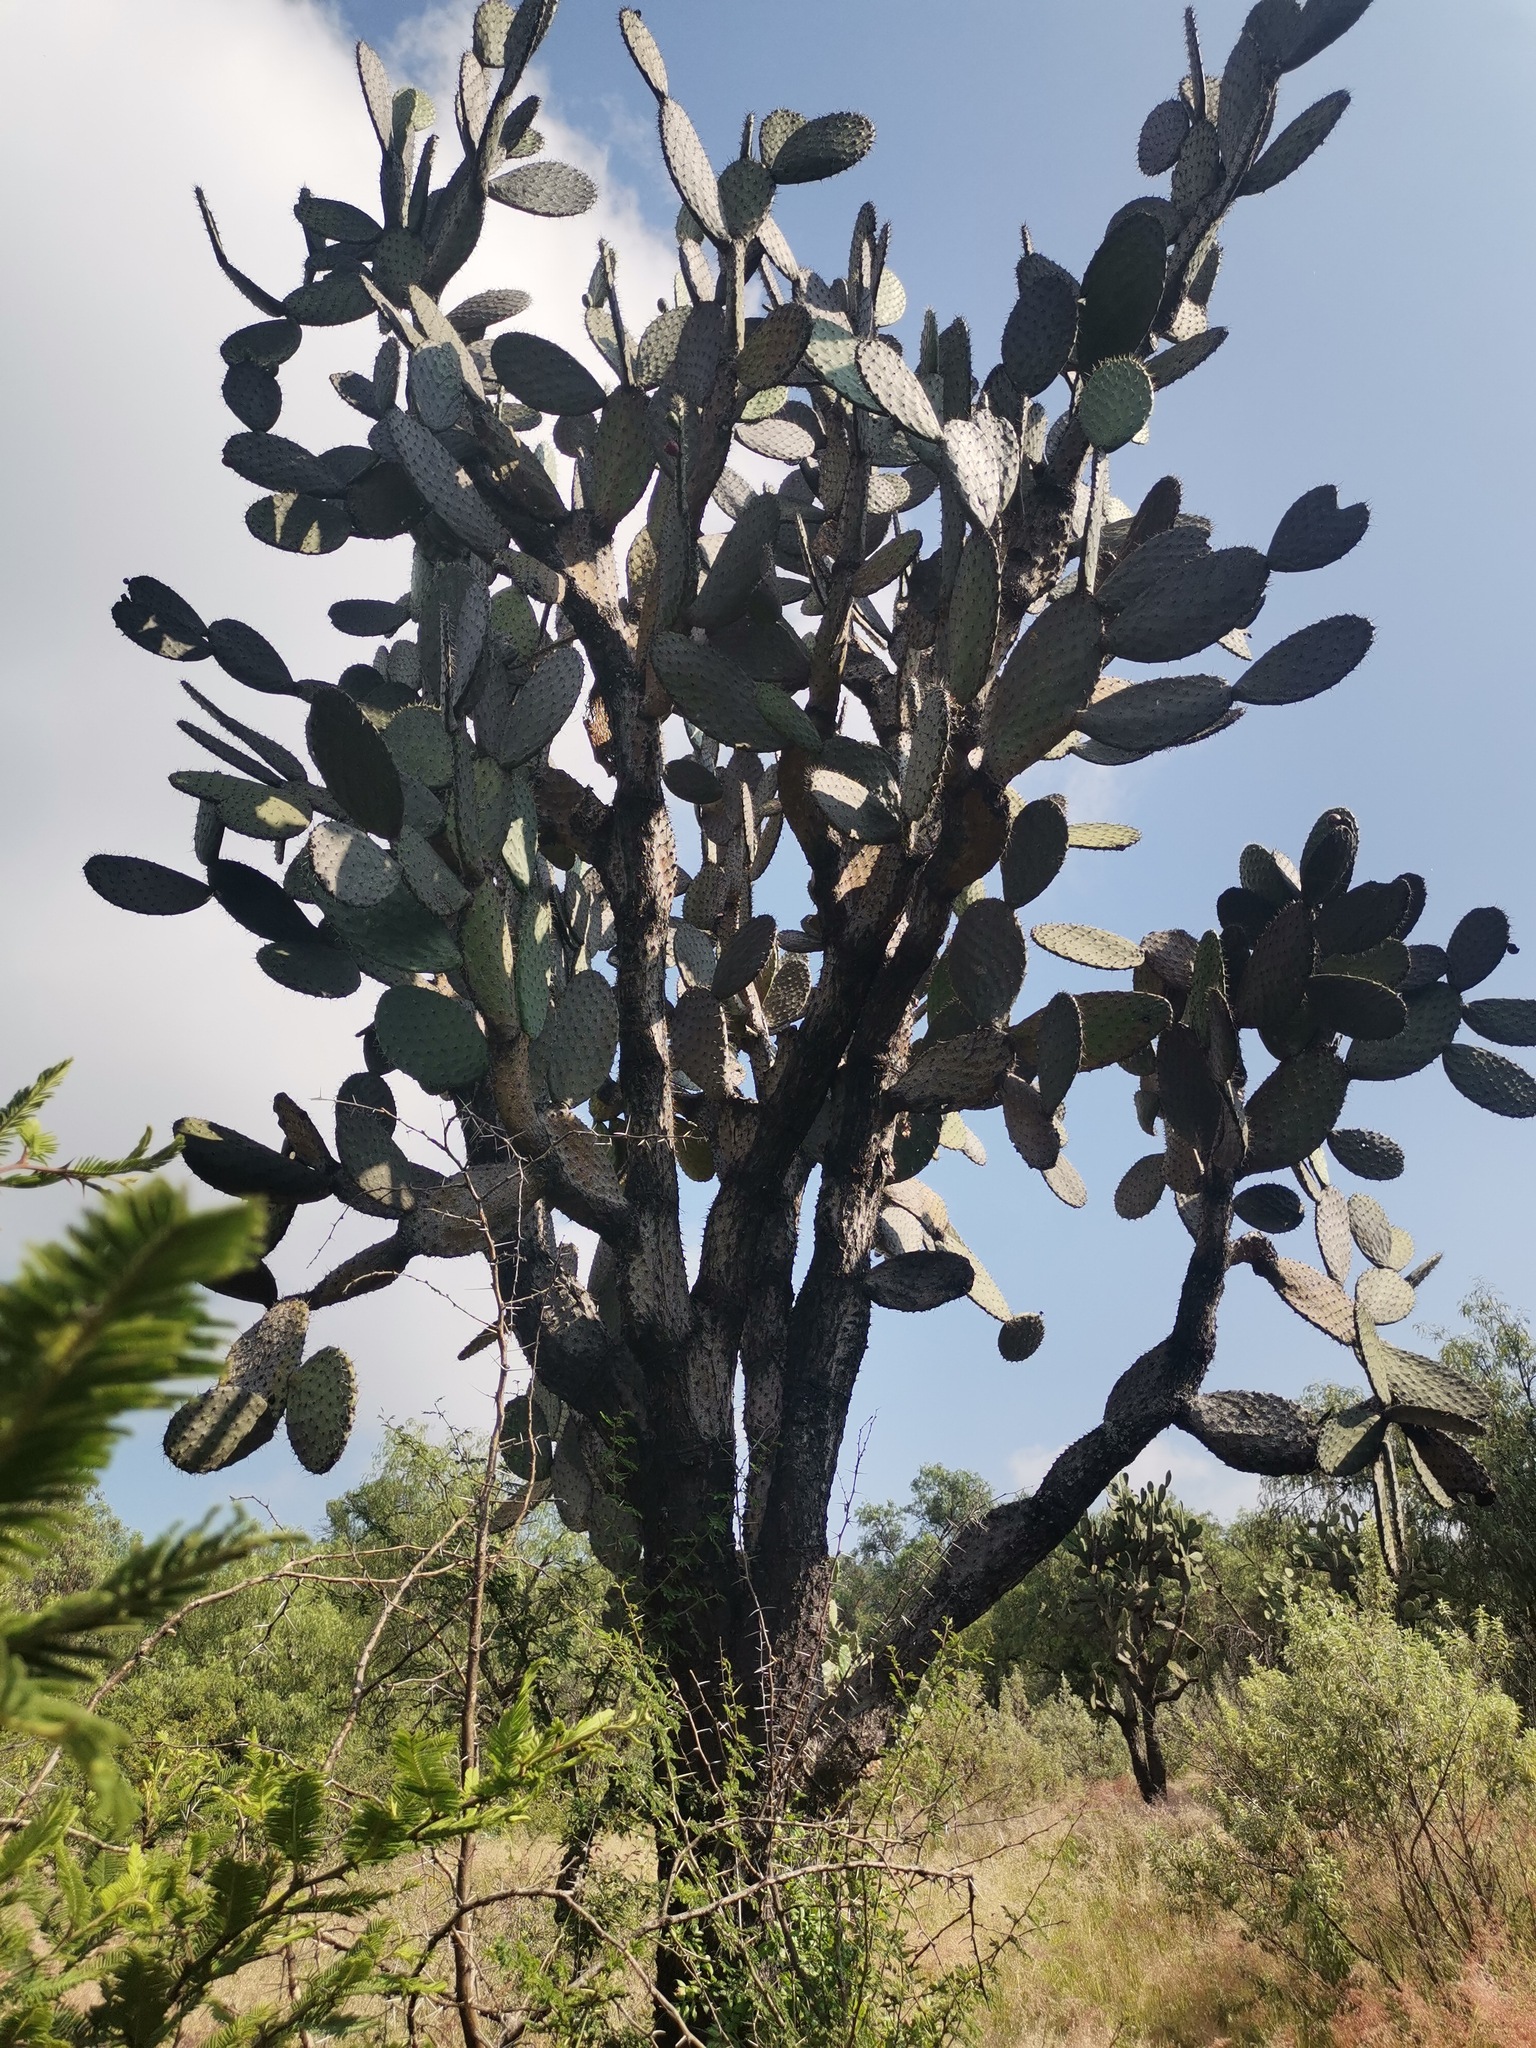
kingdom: Plantae
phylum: Tracheophyta
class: Magnoliopsida
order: Caryophyllales
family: Cactaceae
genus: Opuntia
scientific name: Opuntia lasiacantha
